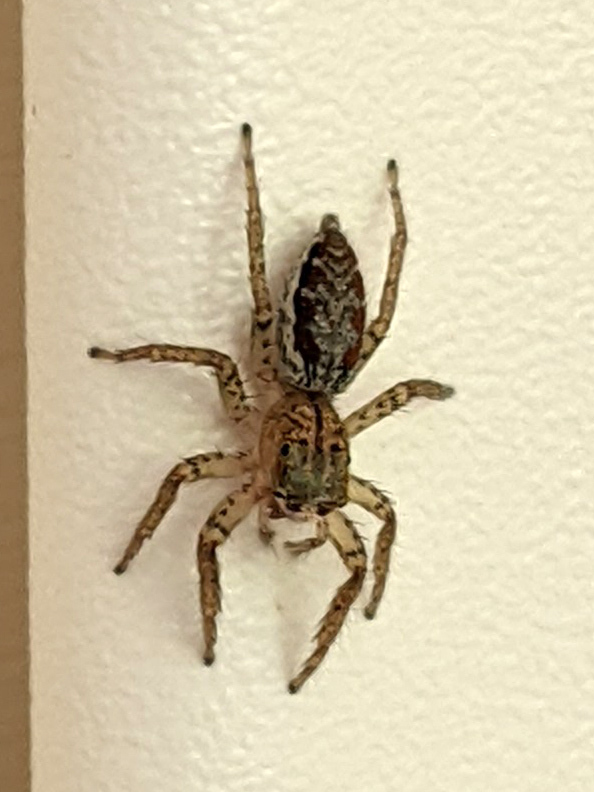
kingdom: Animalia
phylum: Arthropoda
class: Arachnida
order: Araneae
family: Salticidae
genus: Maevia
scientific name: Maevia inclemens
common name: Dimorphic jumper
